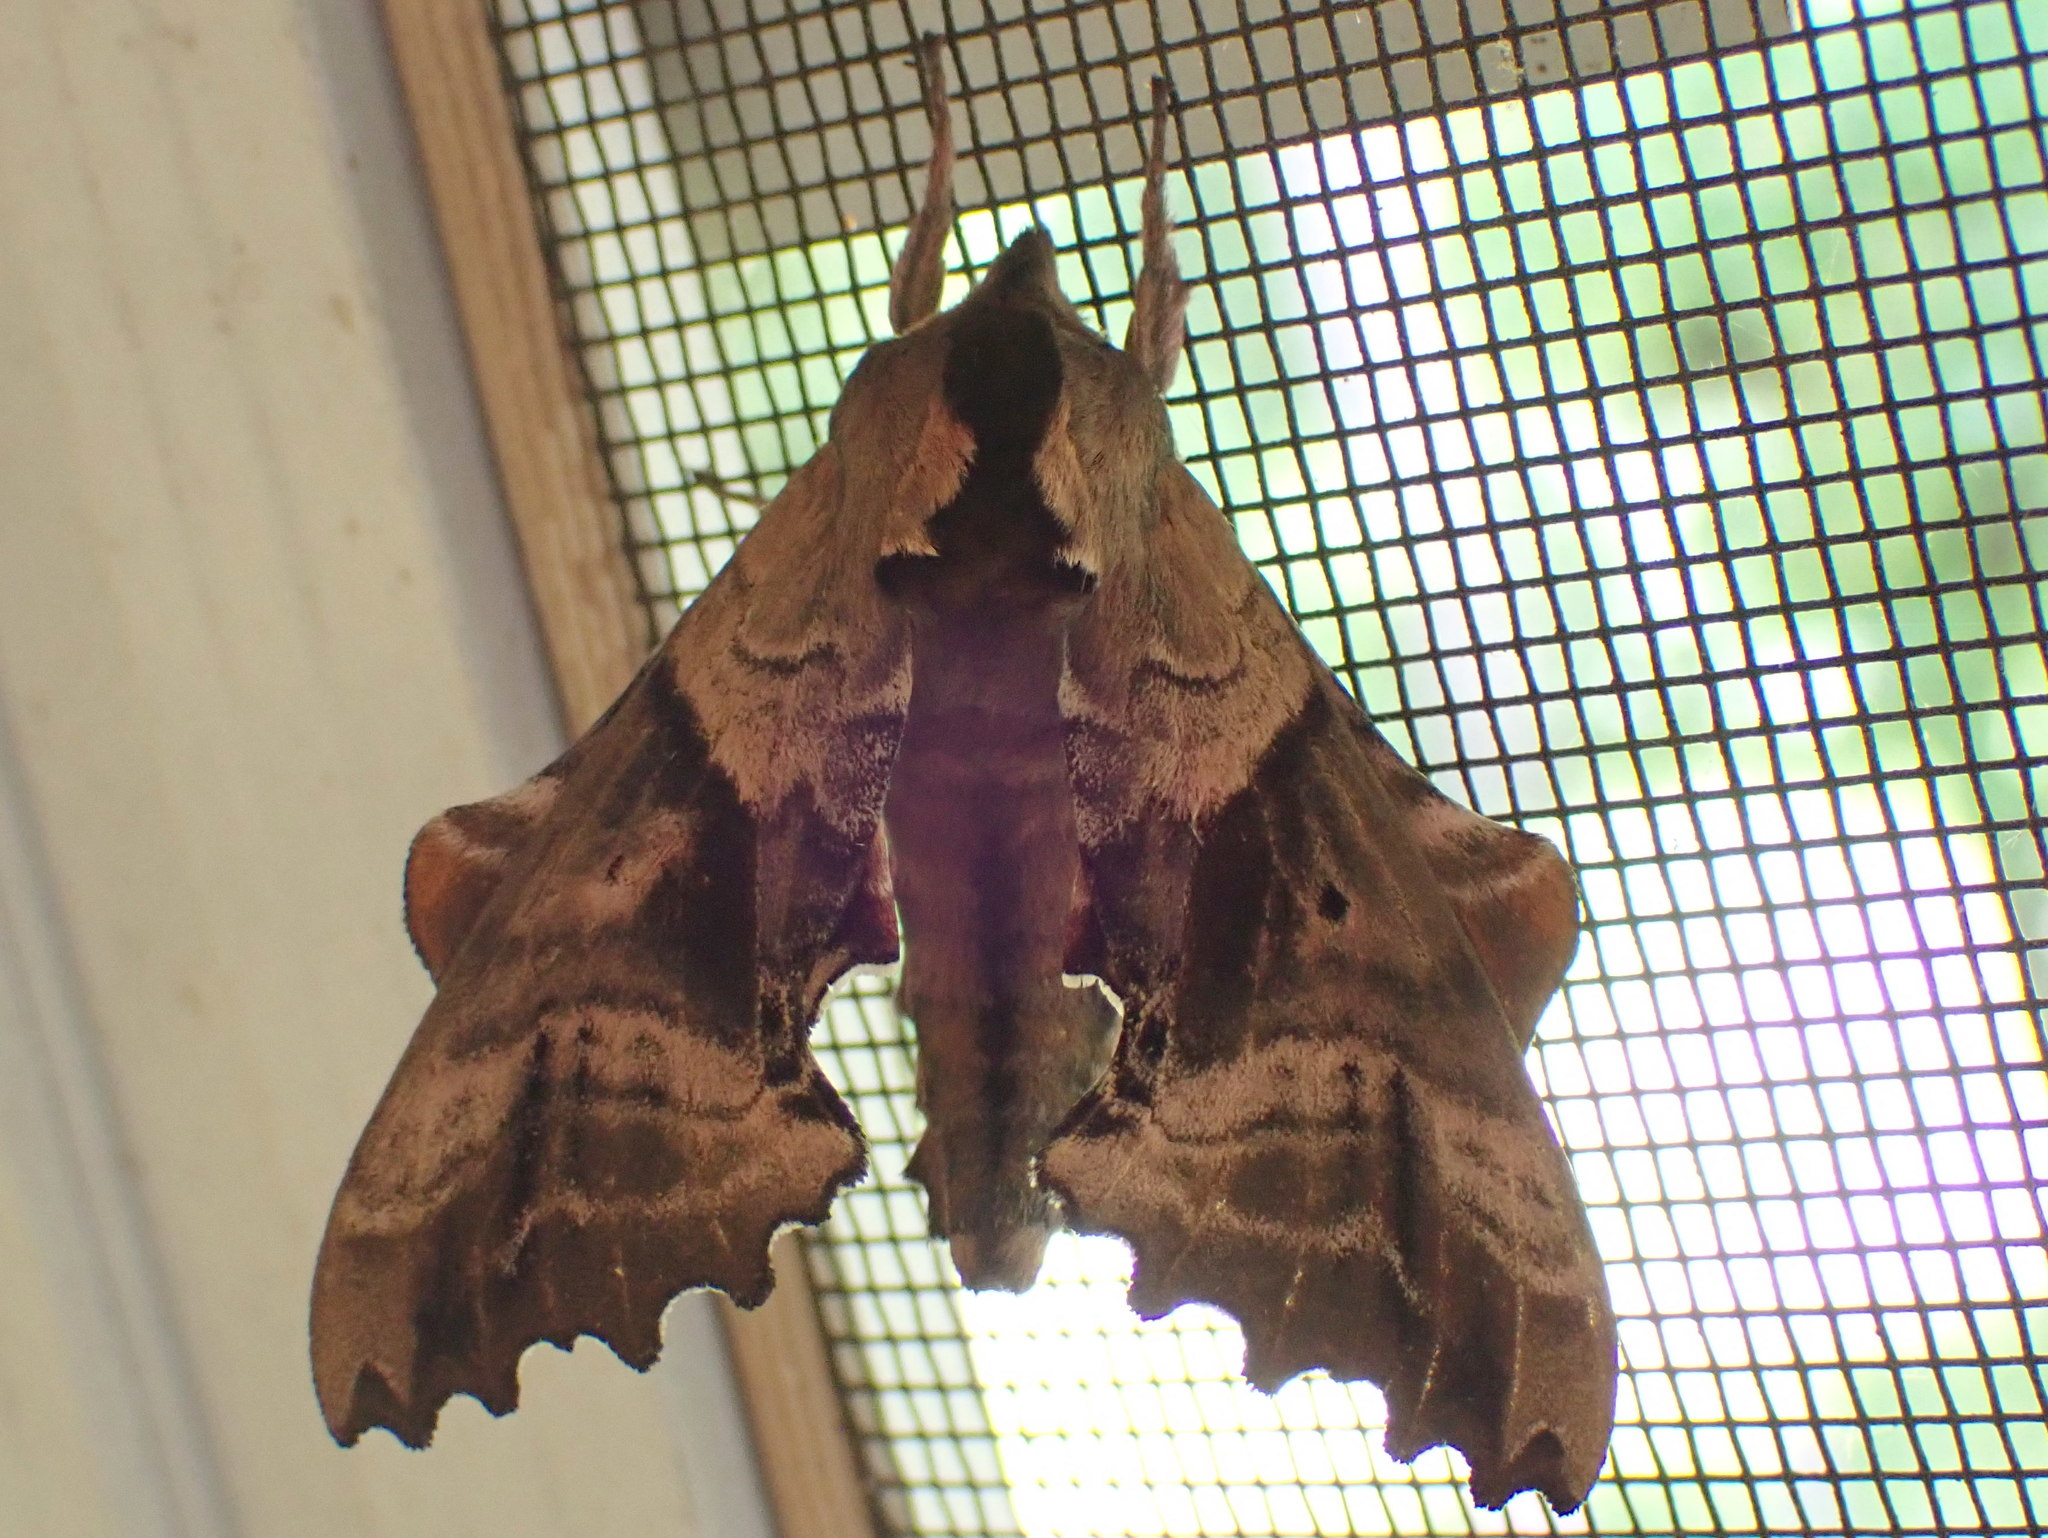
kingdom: Animalia
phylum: Arthropoda
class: Insecta
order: Lepidoptera
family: Sphingidae
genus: Paonias
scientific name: Paonias excaecata
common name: Blind-eyed sphinx
